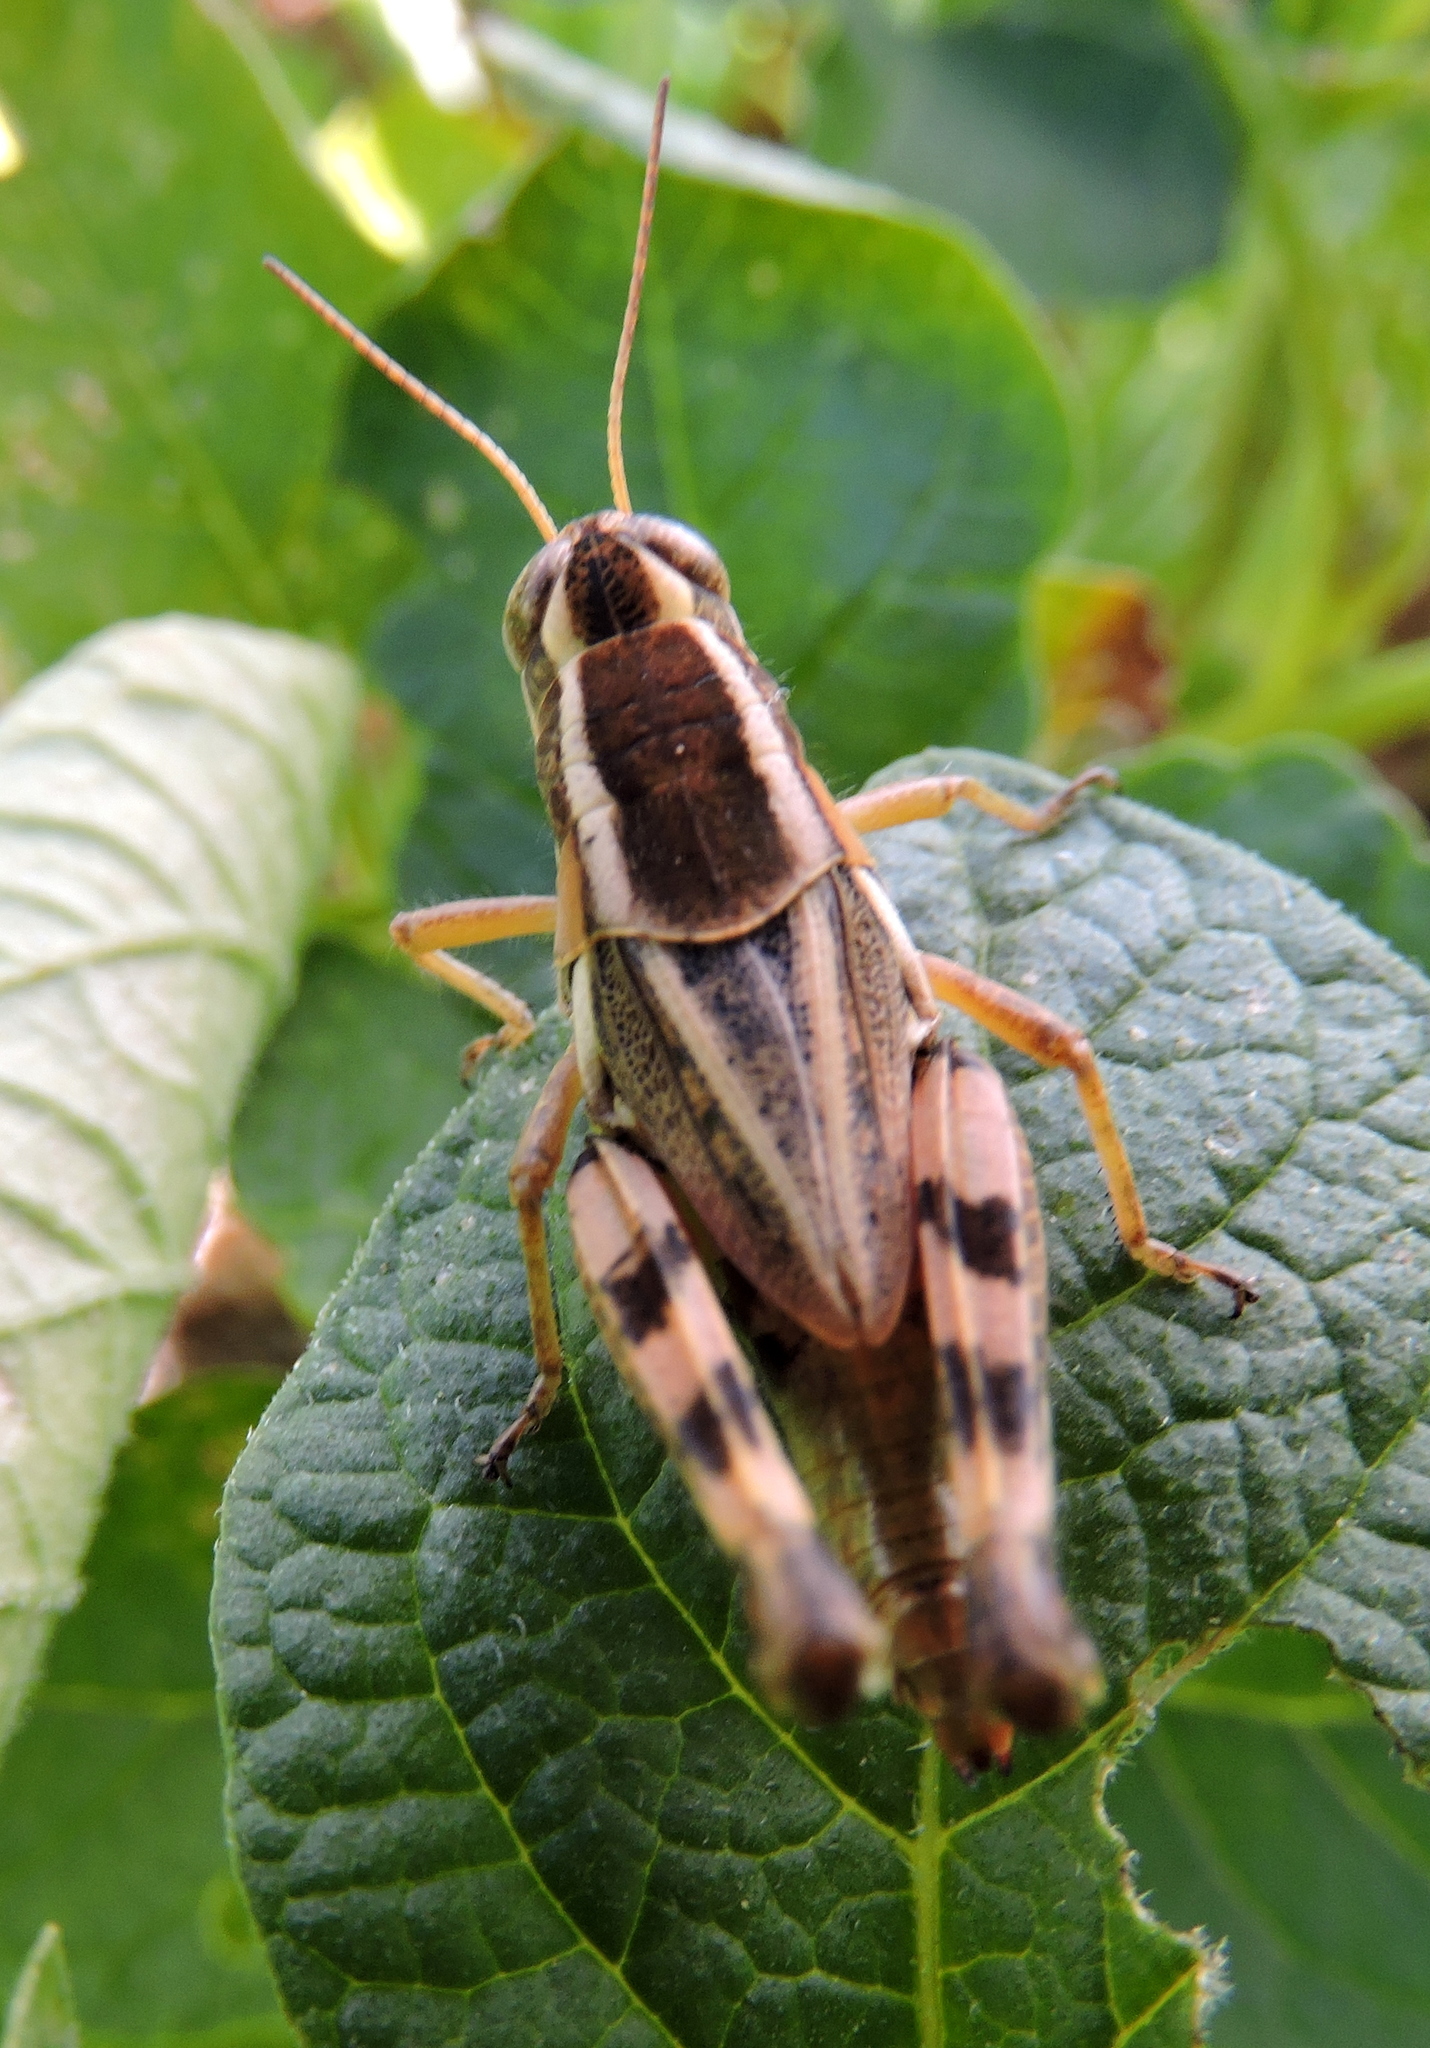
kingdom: Animalia
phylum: Arthropoda
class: Insecta
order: Orthoptera
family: Acrididae
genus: Dichroplus
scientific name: Dichroplus vittatus
